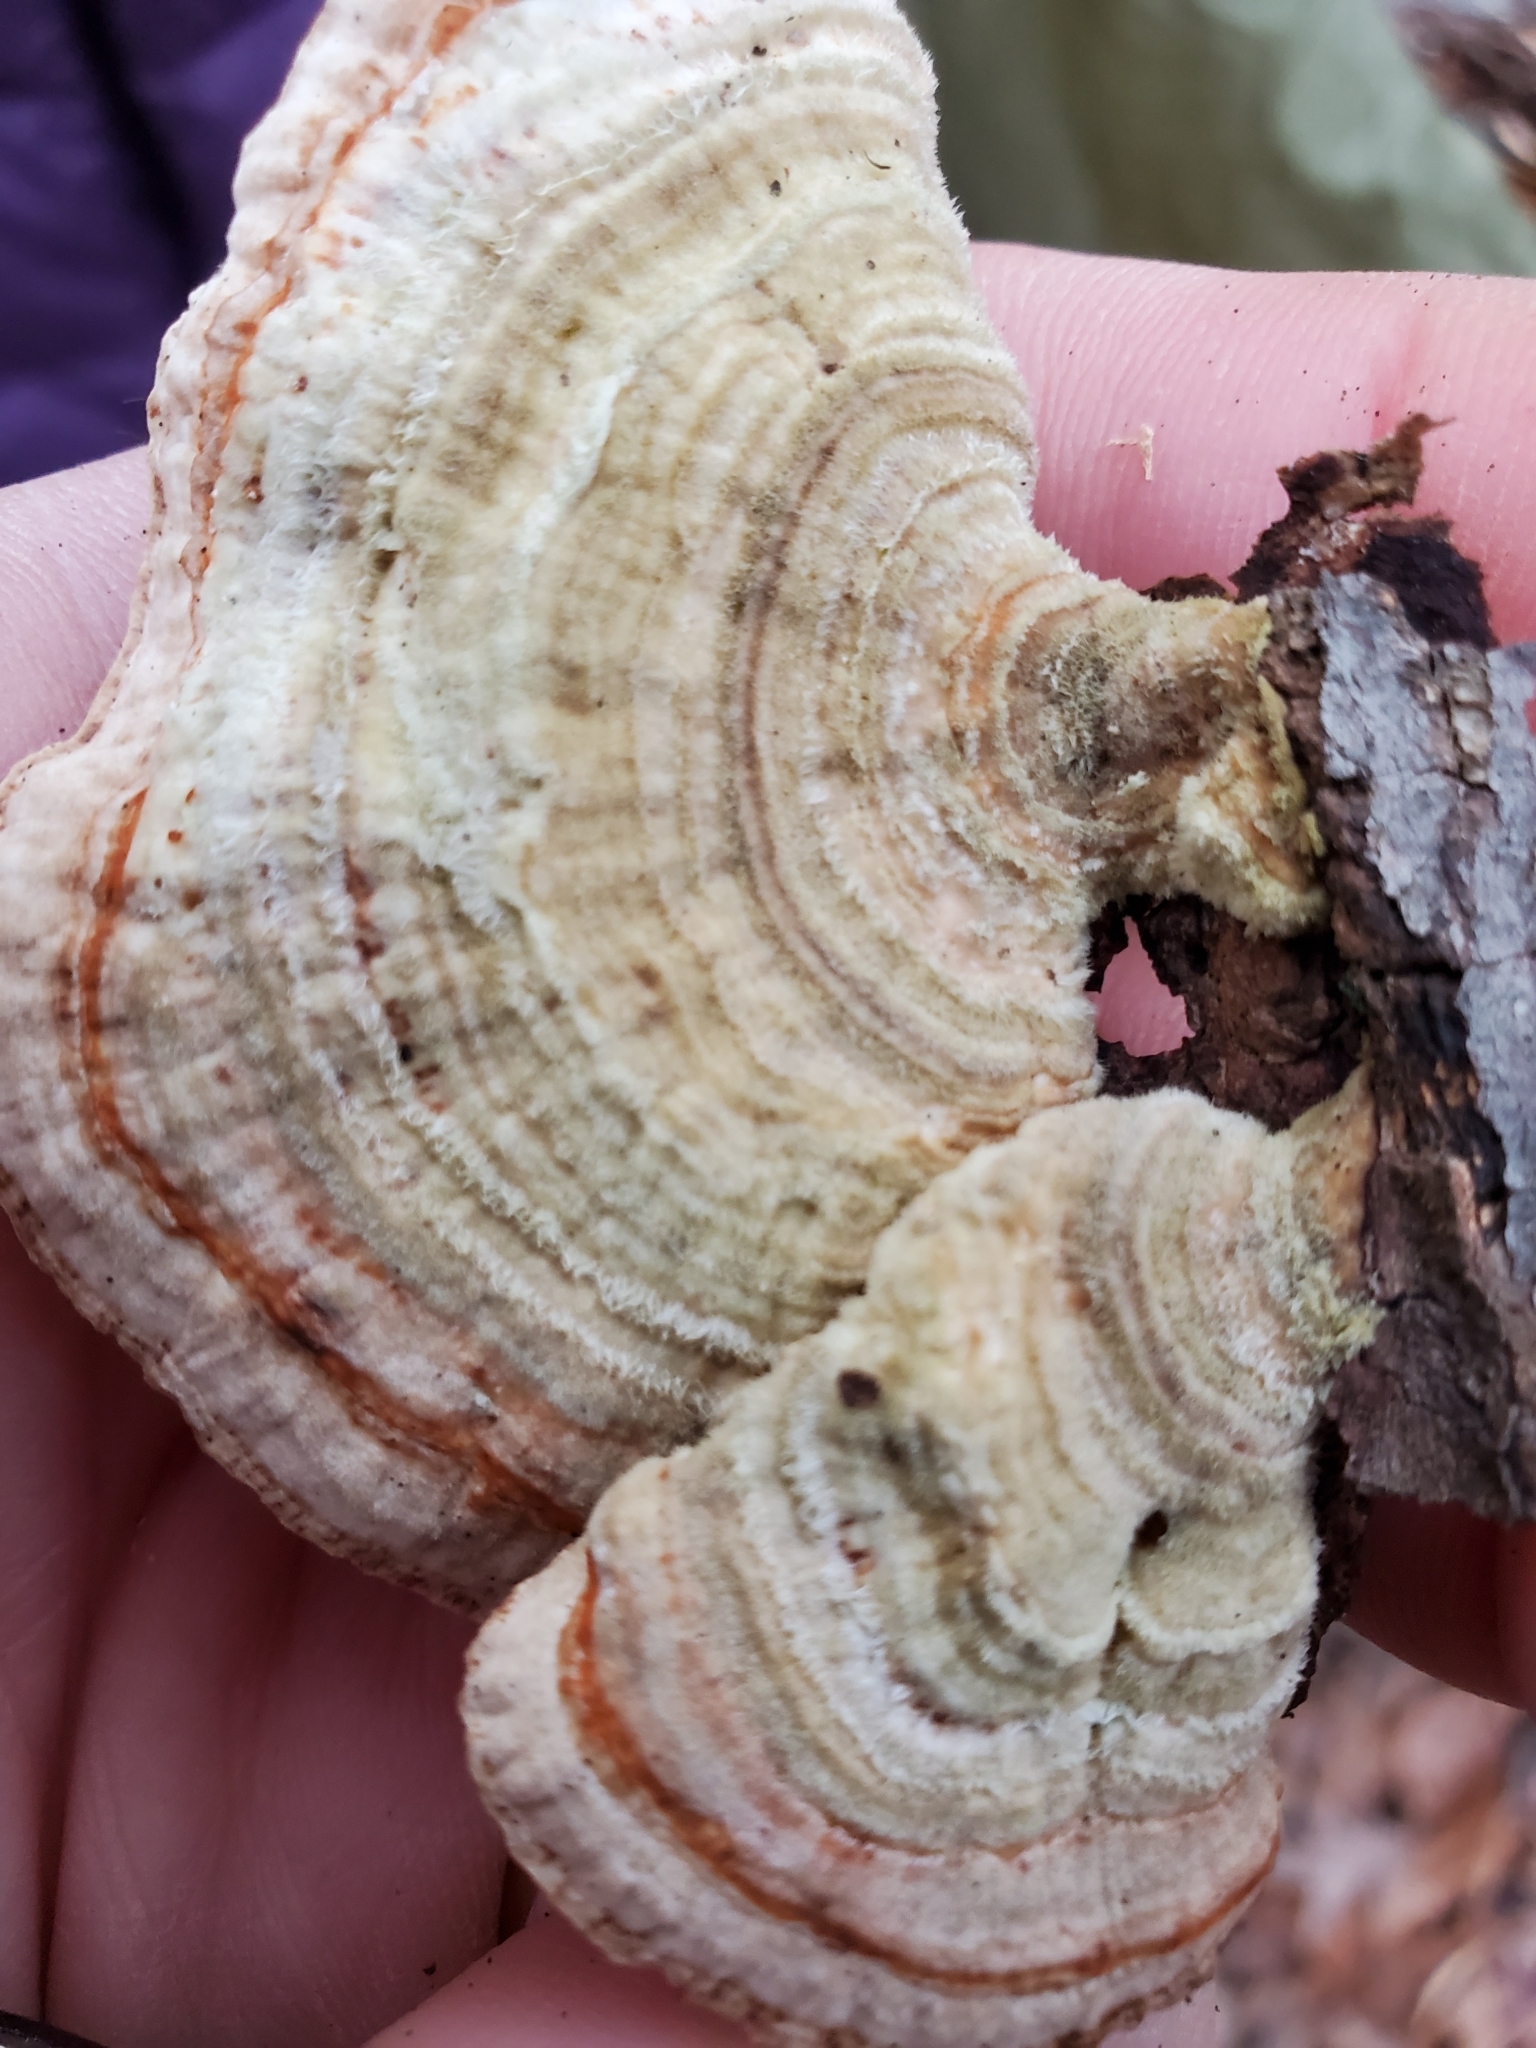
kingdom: Fungi
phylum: Basidiomycota
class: Agaricomycetes
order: Polyporales
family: Polyporaceae
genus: Lenzites
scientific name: Lenzites betulinus
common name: Birch mazegill
